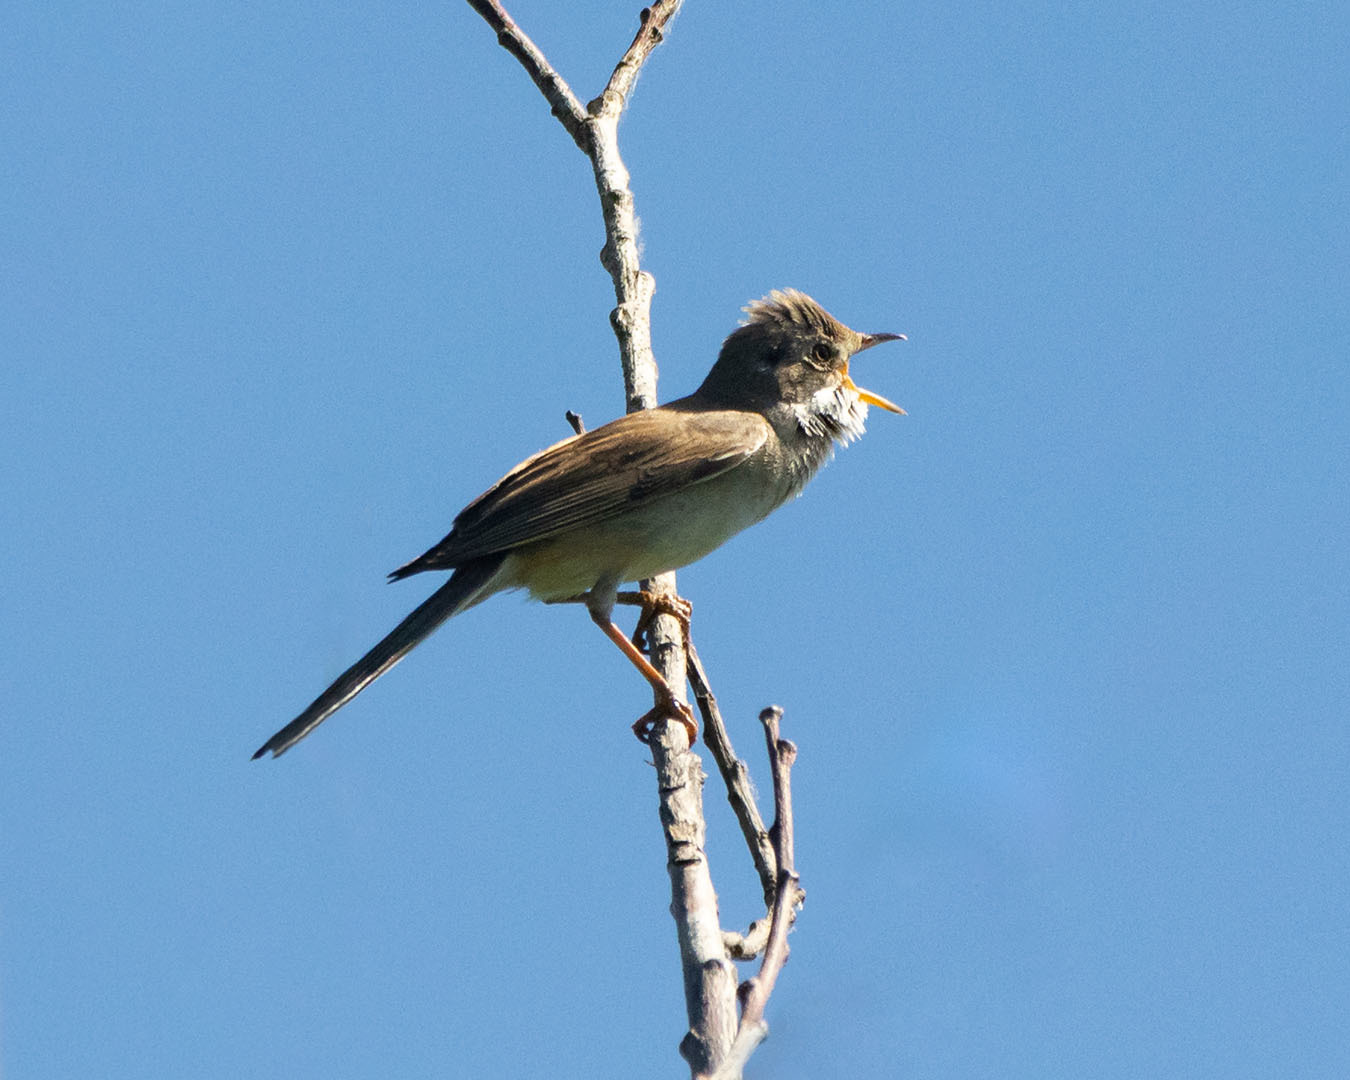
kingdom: Animalia
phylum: Chordata
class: Aves
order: Passeriformes
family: Sylviidae
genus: Sylvia
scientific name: Sylvia communis
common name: Common whitethroat
